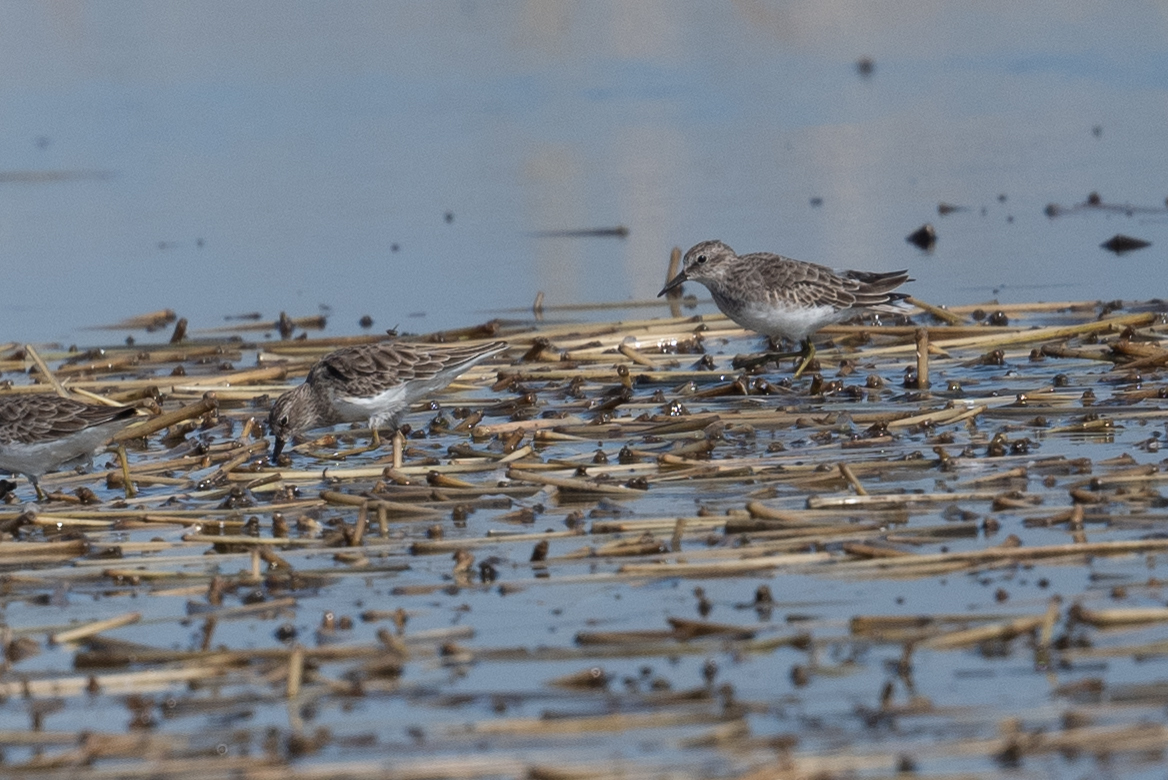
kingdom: Animalia
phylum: Chordata
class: Aves
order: Charadriiformes
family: Scolopacidae
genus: Calidris
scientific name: Calidris minutilla
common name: Least sandpiper
